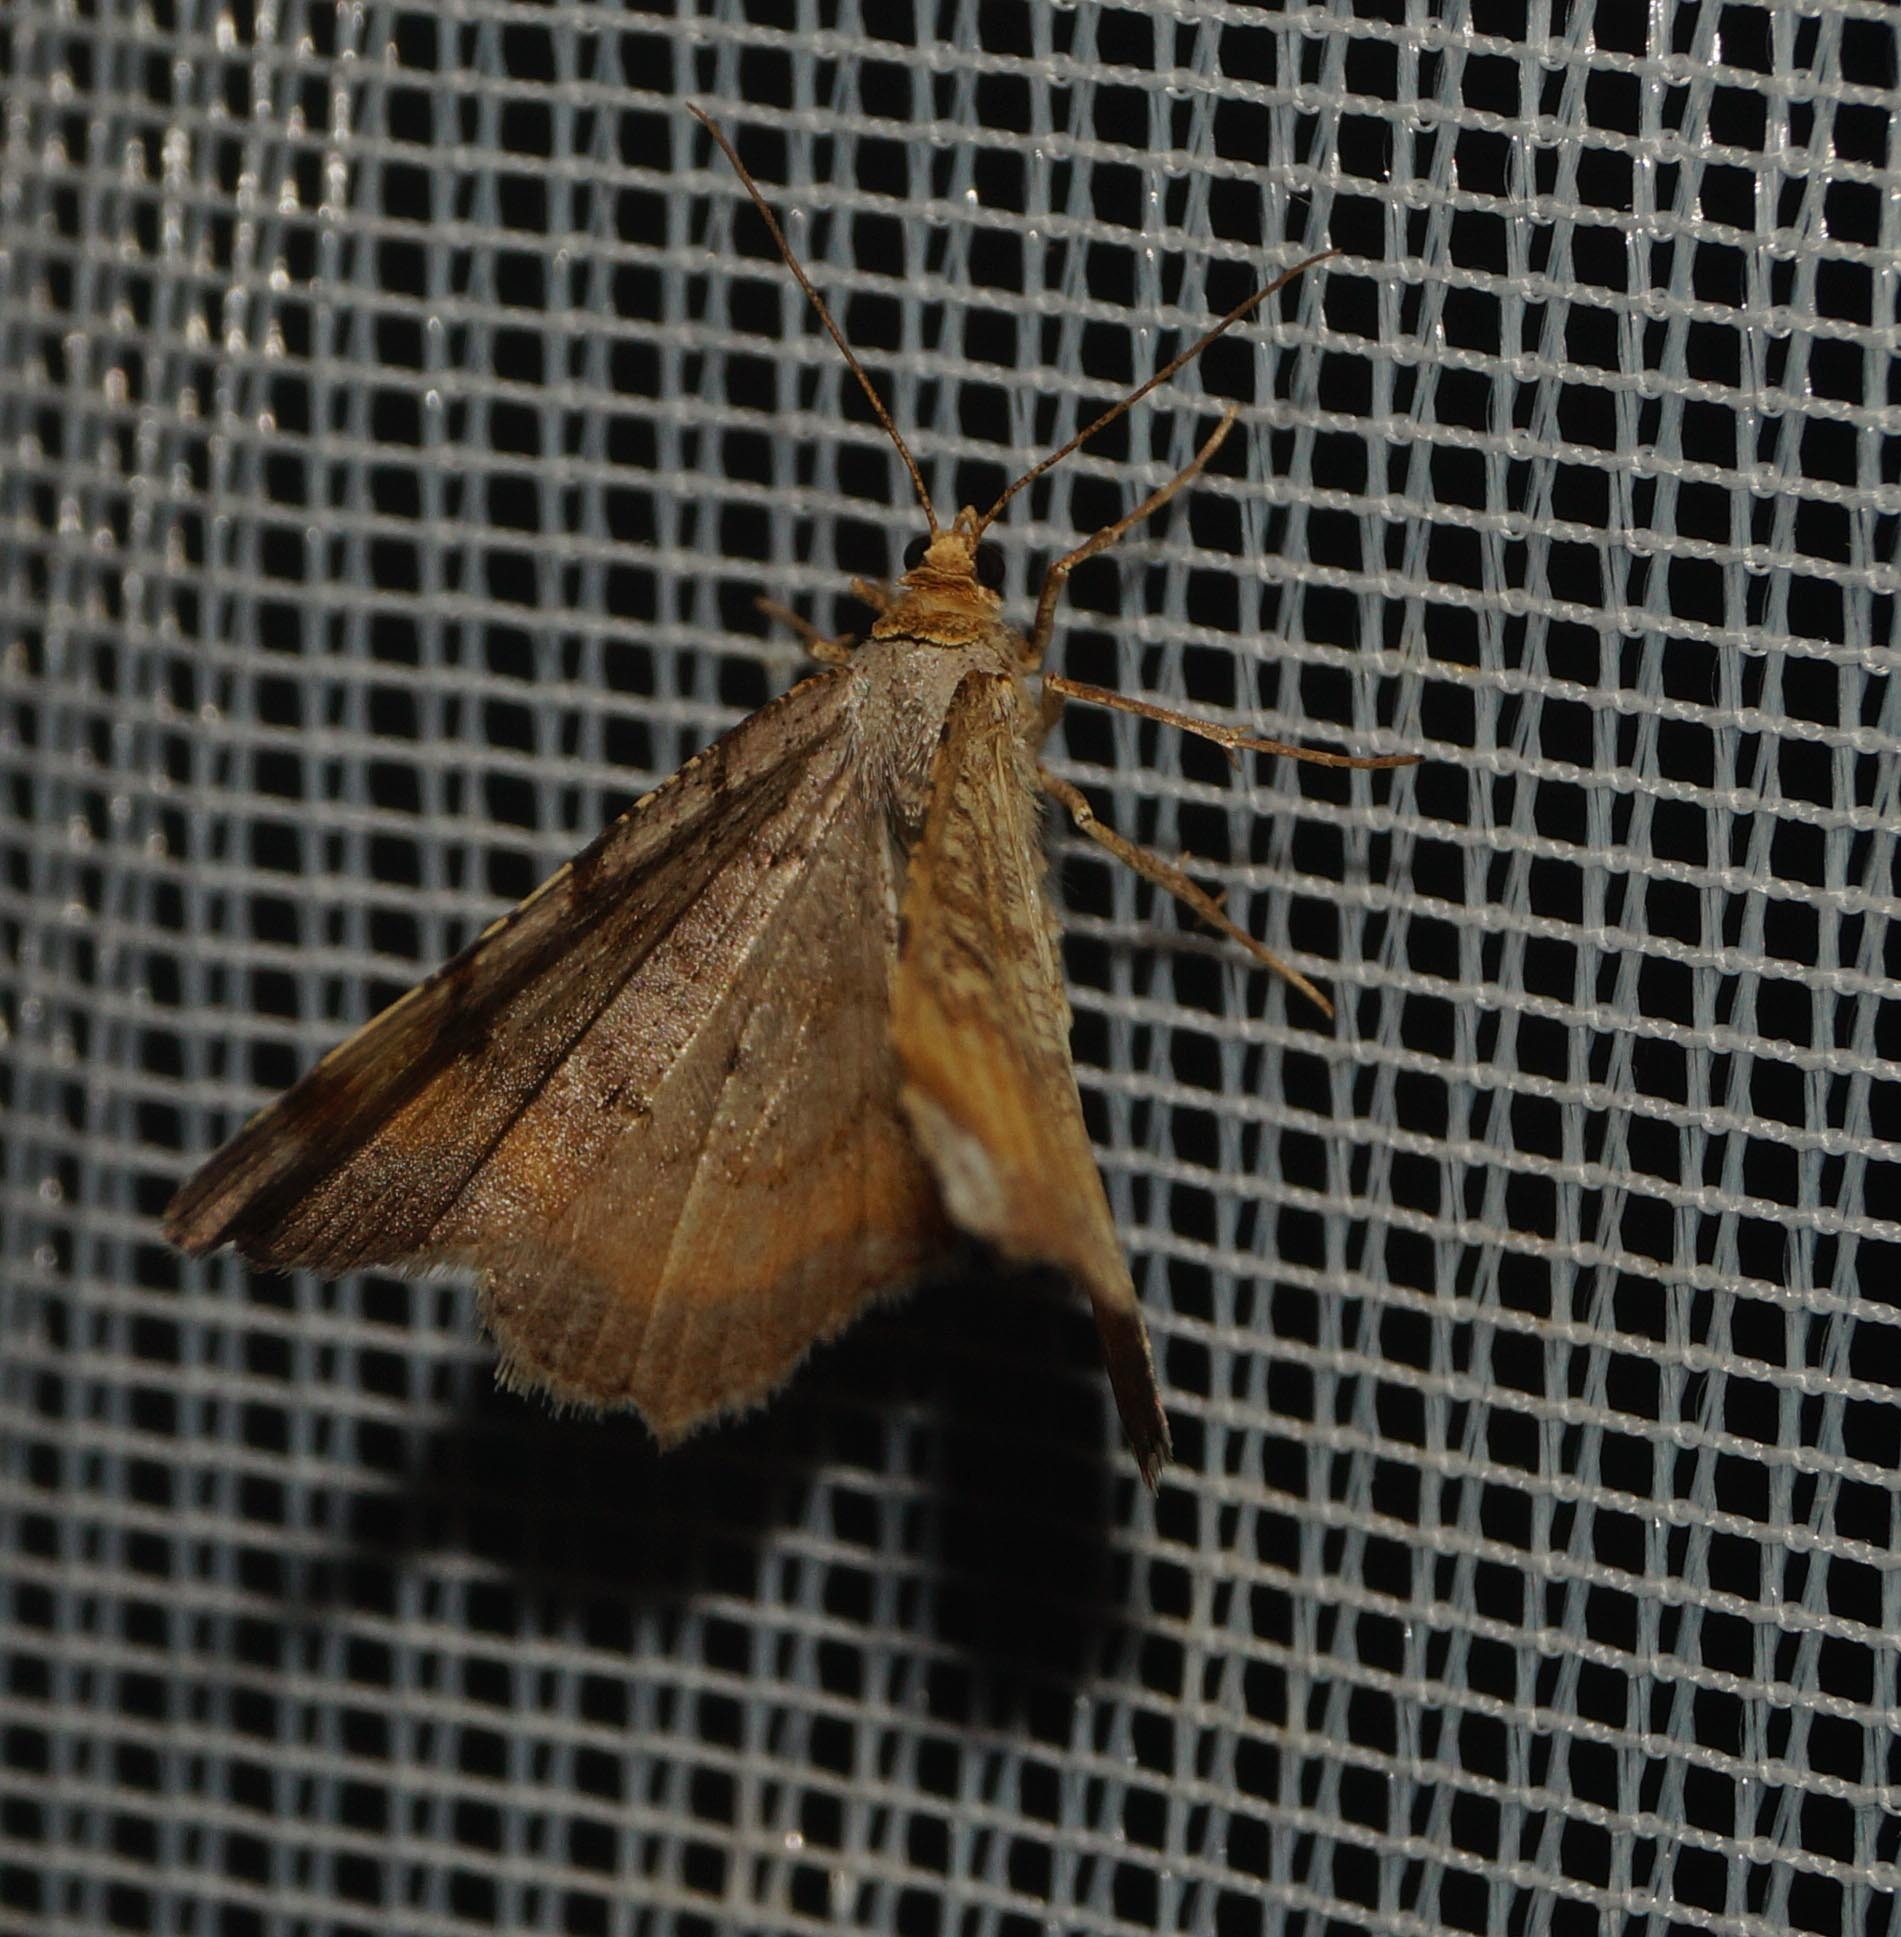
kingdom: Animalia
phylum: Arthropoda
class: Insecta
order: Lepidoptera
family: Geometridae
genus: Macaria
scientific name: Macaria liturata
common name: Tawny-barred angle
